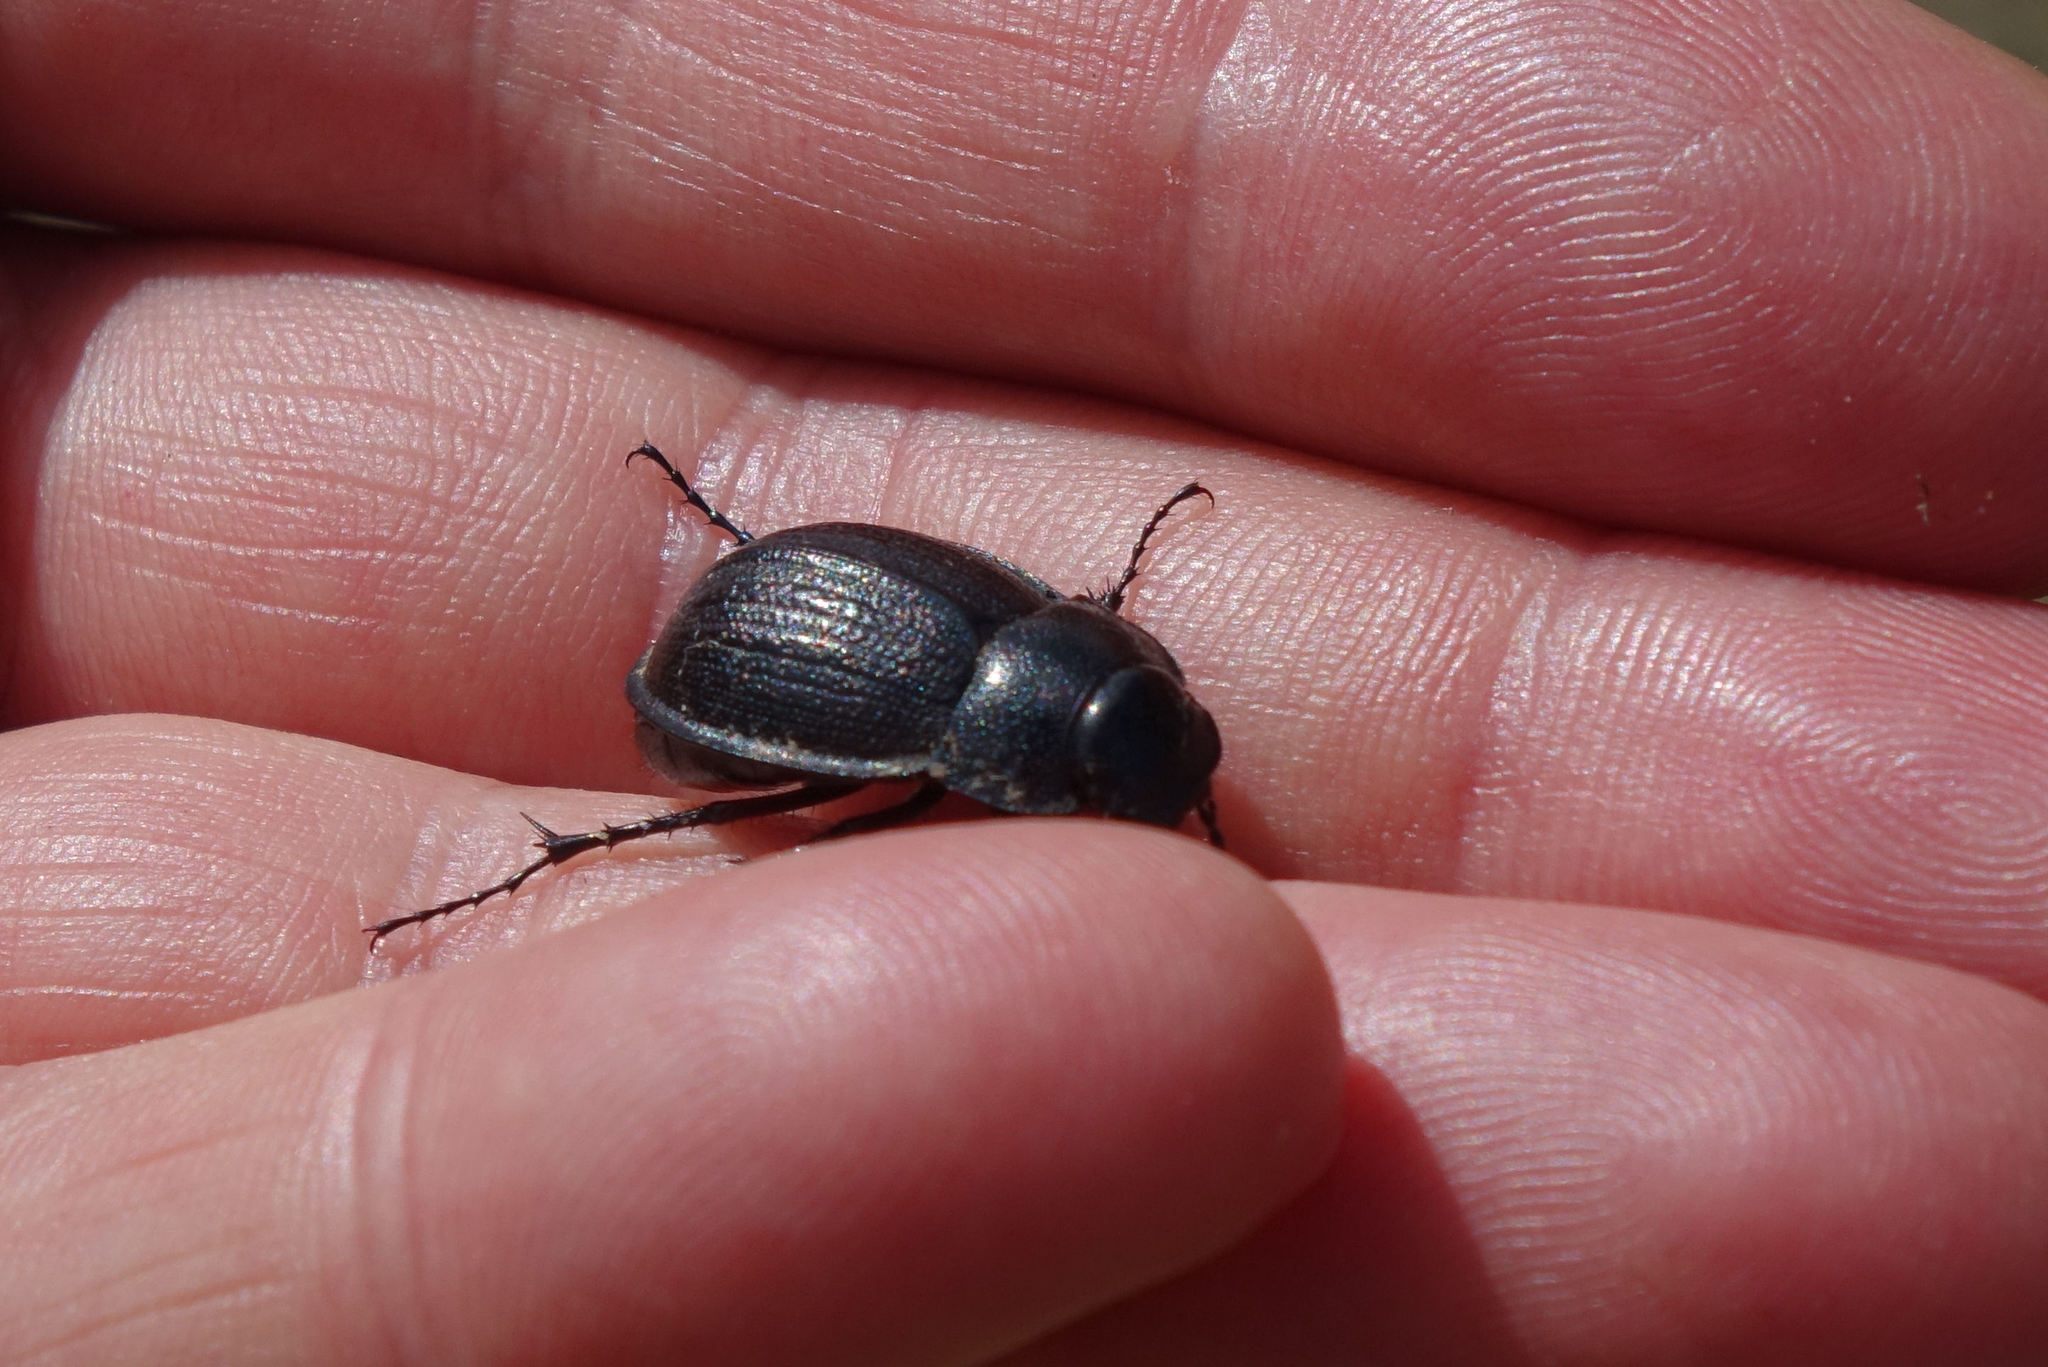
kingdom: Animalia
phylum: Arthropoda
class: Insecta
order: Coleoptera
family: Scarabaeidae
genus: Scythrodes
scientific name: Scythrodes squalidus
